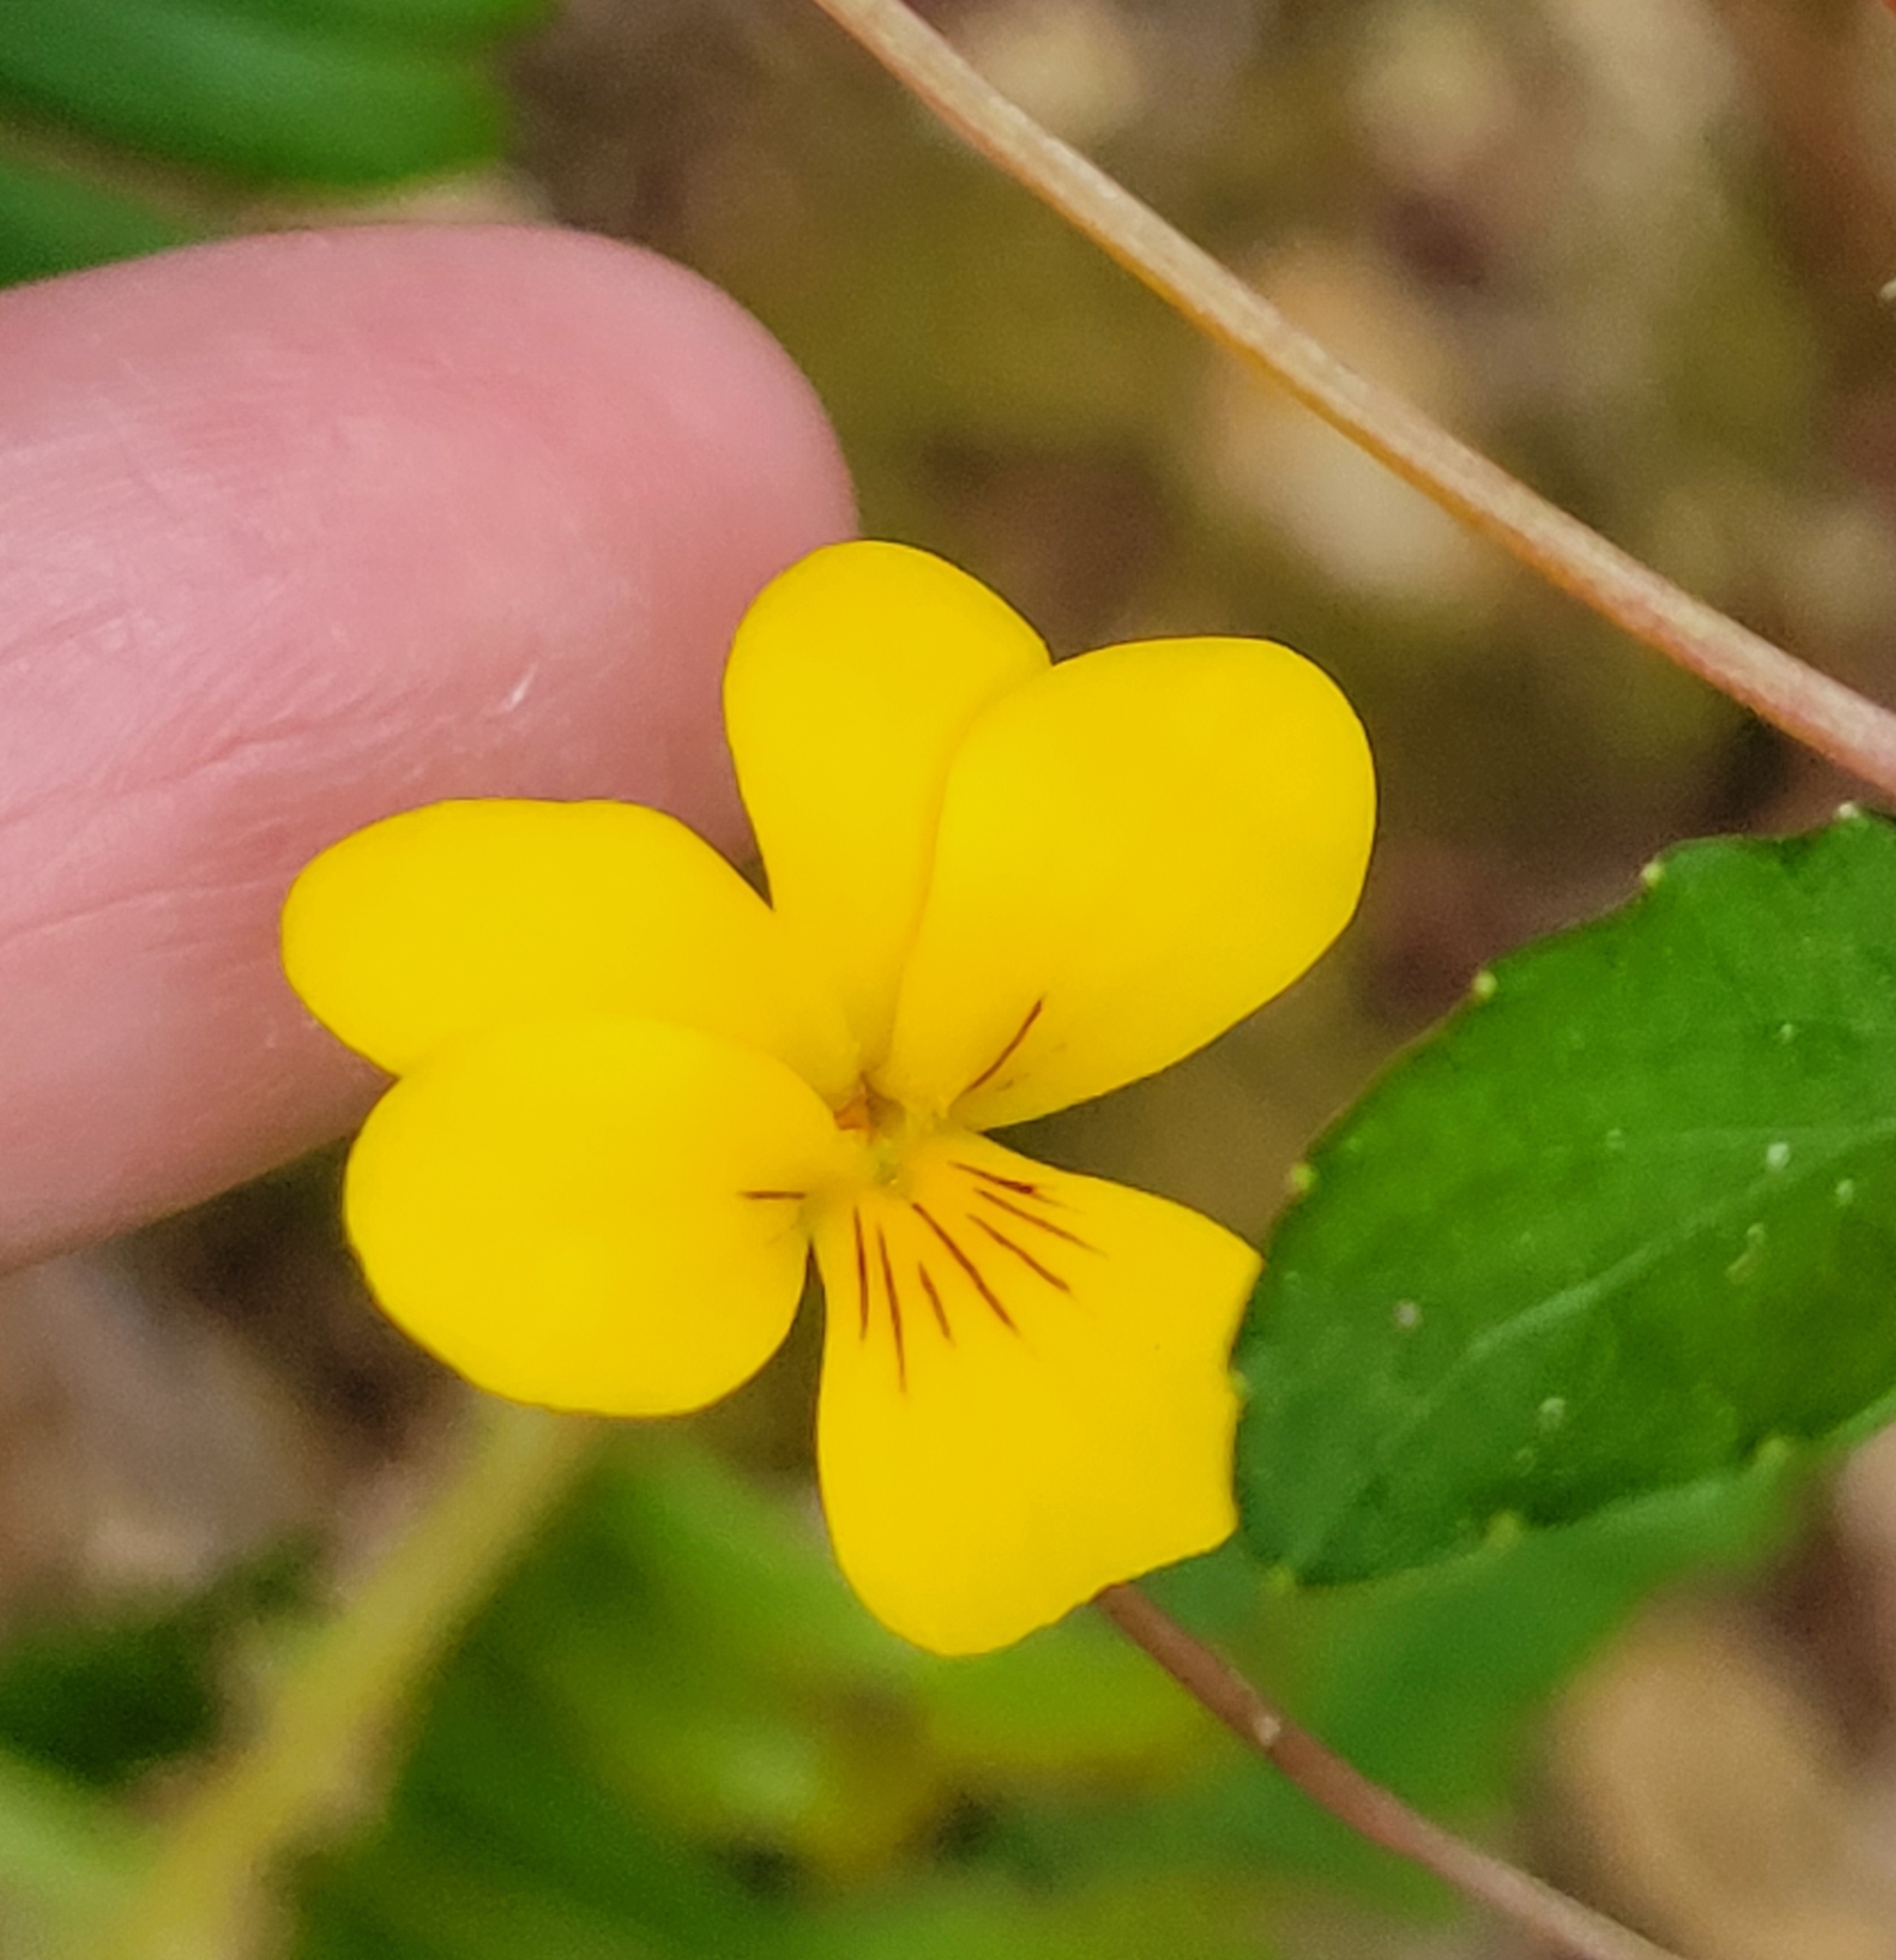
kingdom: Plantae
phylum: Tracheophyta
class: Magnoliopsida
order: Malpighiales
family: Violaceae
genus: Viola
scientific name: Viola sempervirens
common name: Evergreen violet
